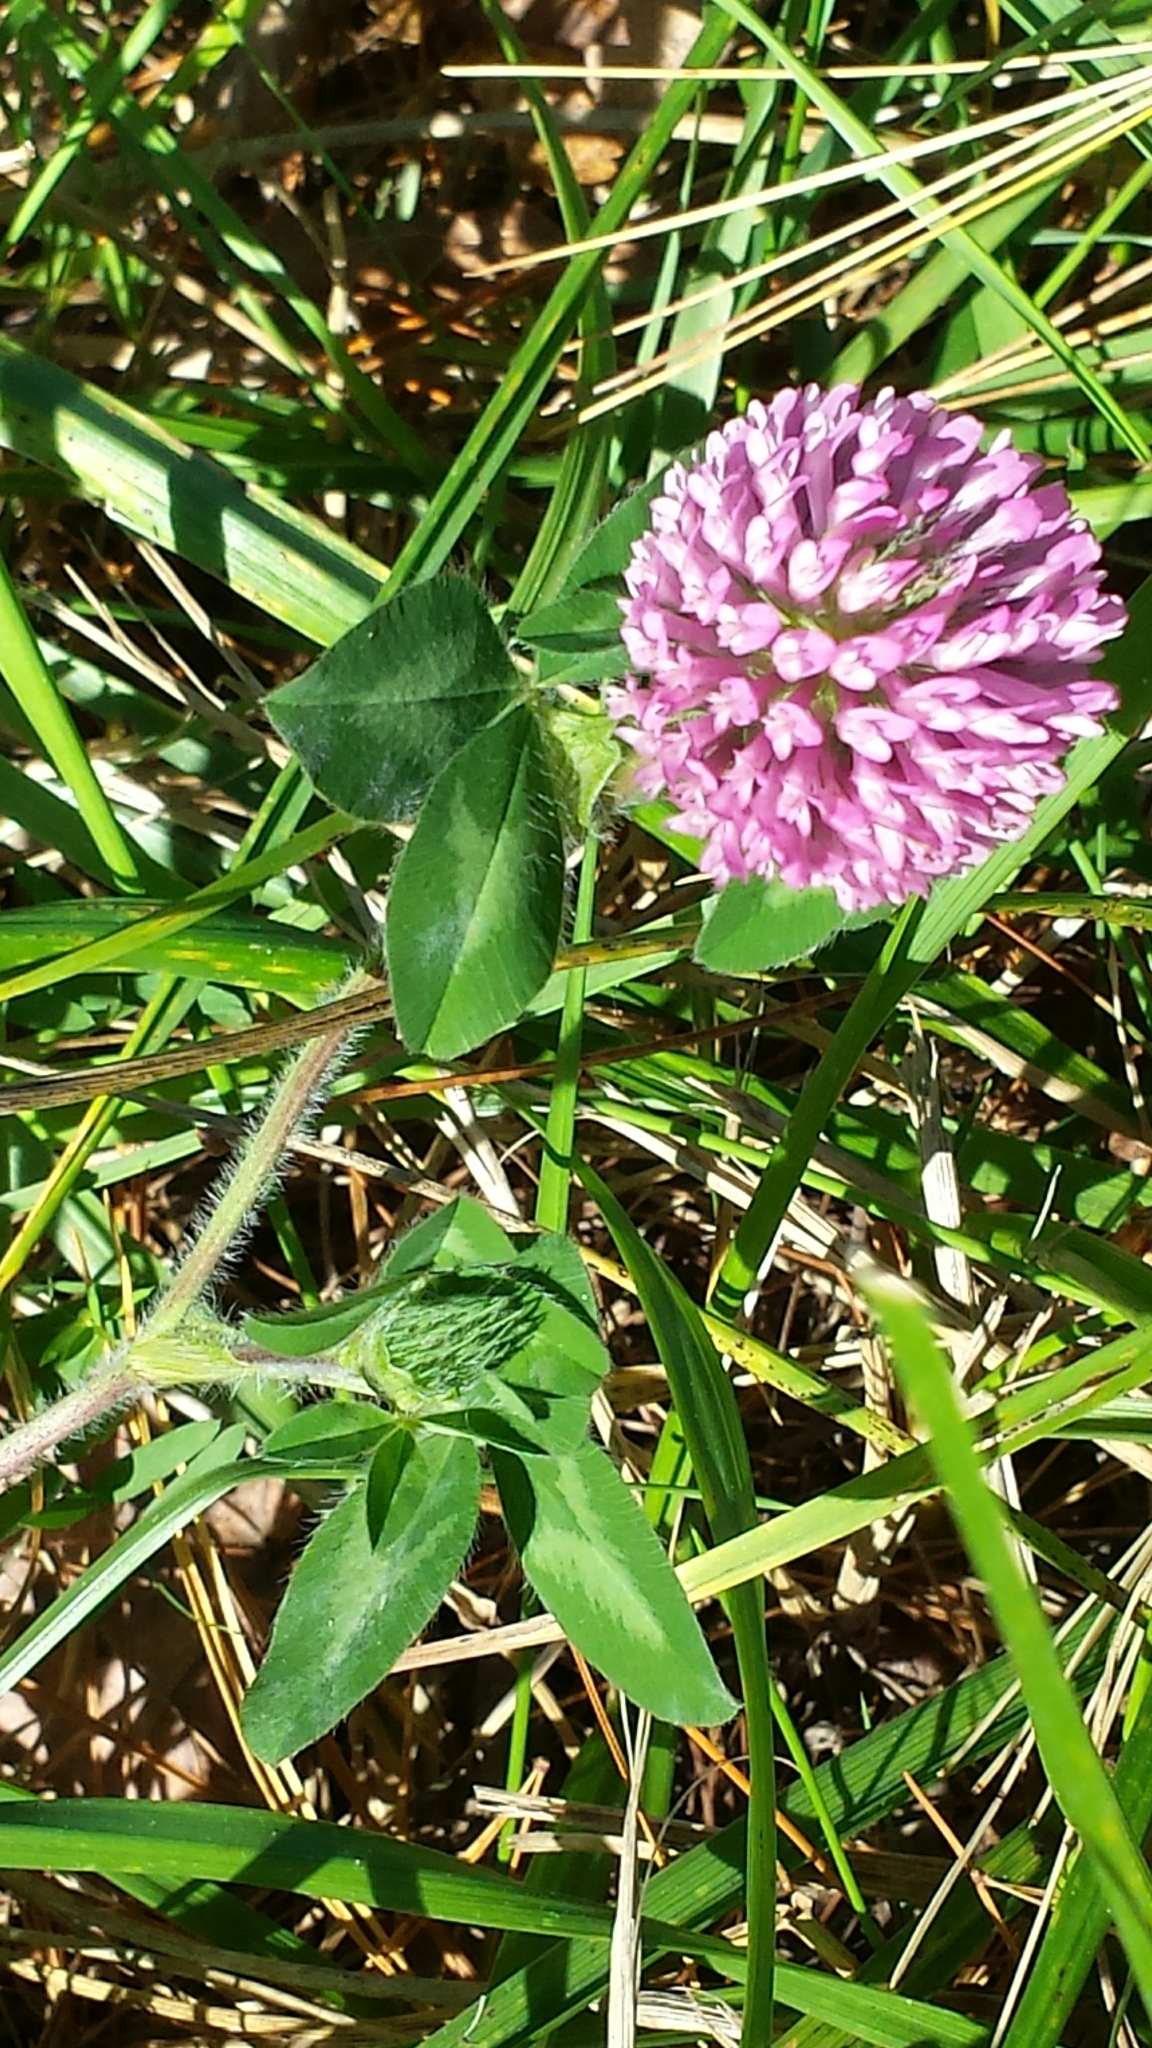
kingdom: Plantae
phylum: Tracheophyta
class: Magnoliopsida
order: Fabales
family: Fabaceae
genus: Trifolium
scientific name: Trifolium pratense
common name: Red clover
